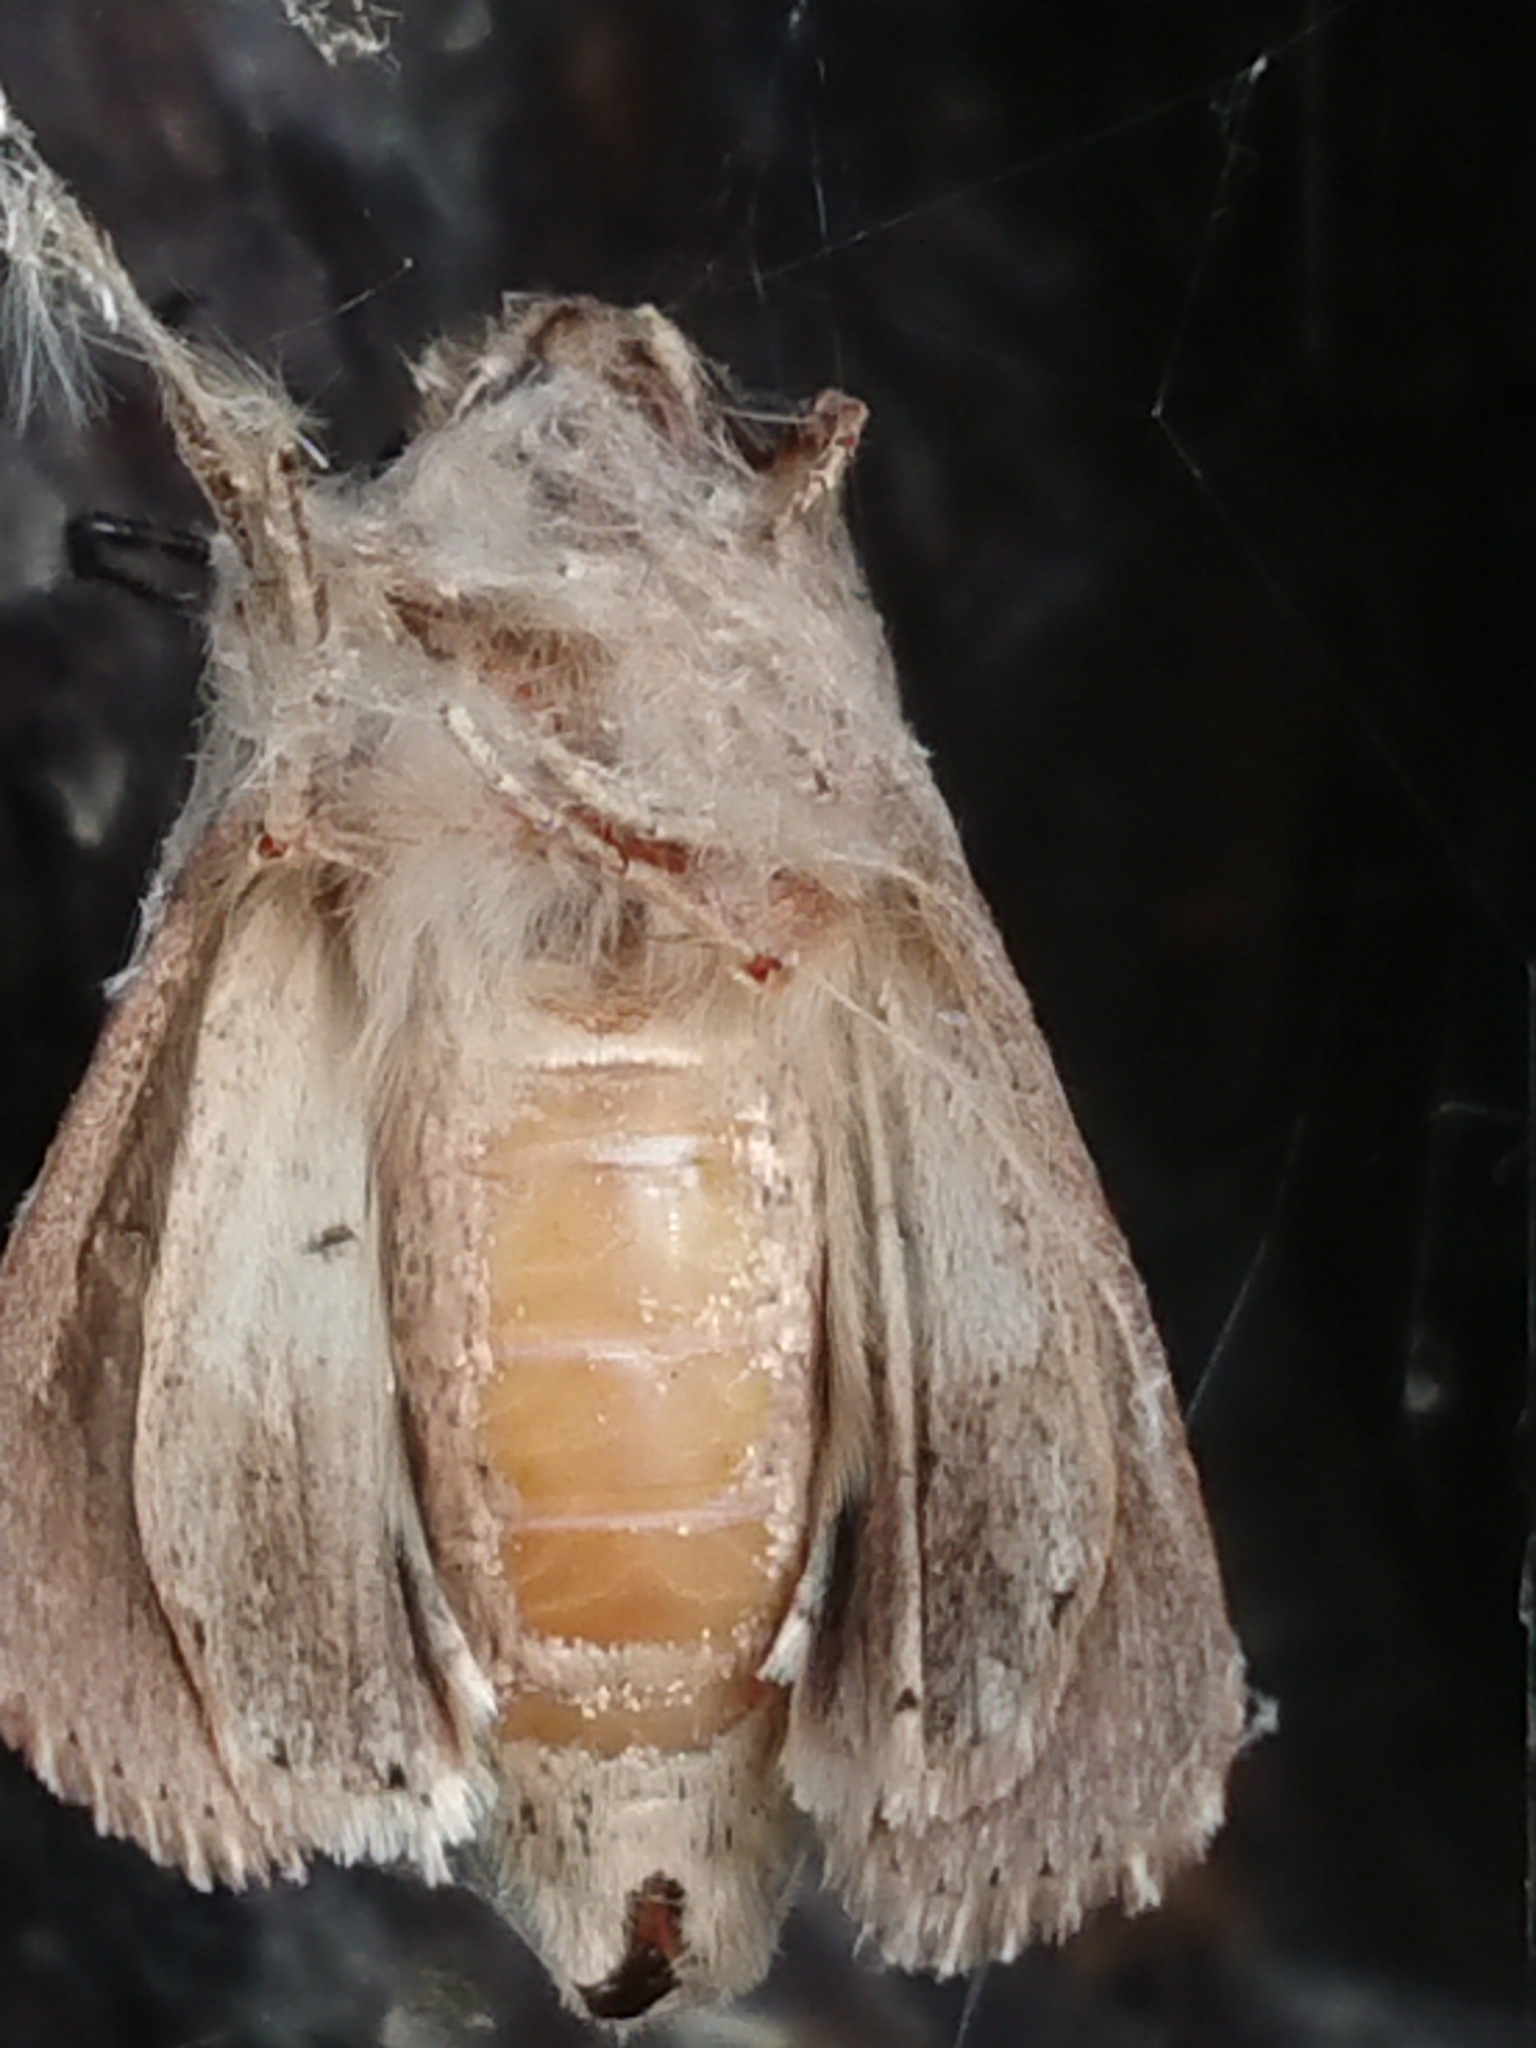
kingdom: Animalia
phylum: Arthropoda
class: Insecta
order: Lepidoptera
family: Noctuidae
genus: Persectania
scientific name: Persectania aversa
